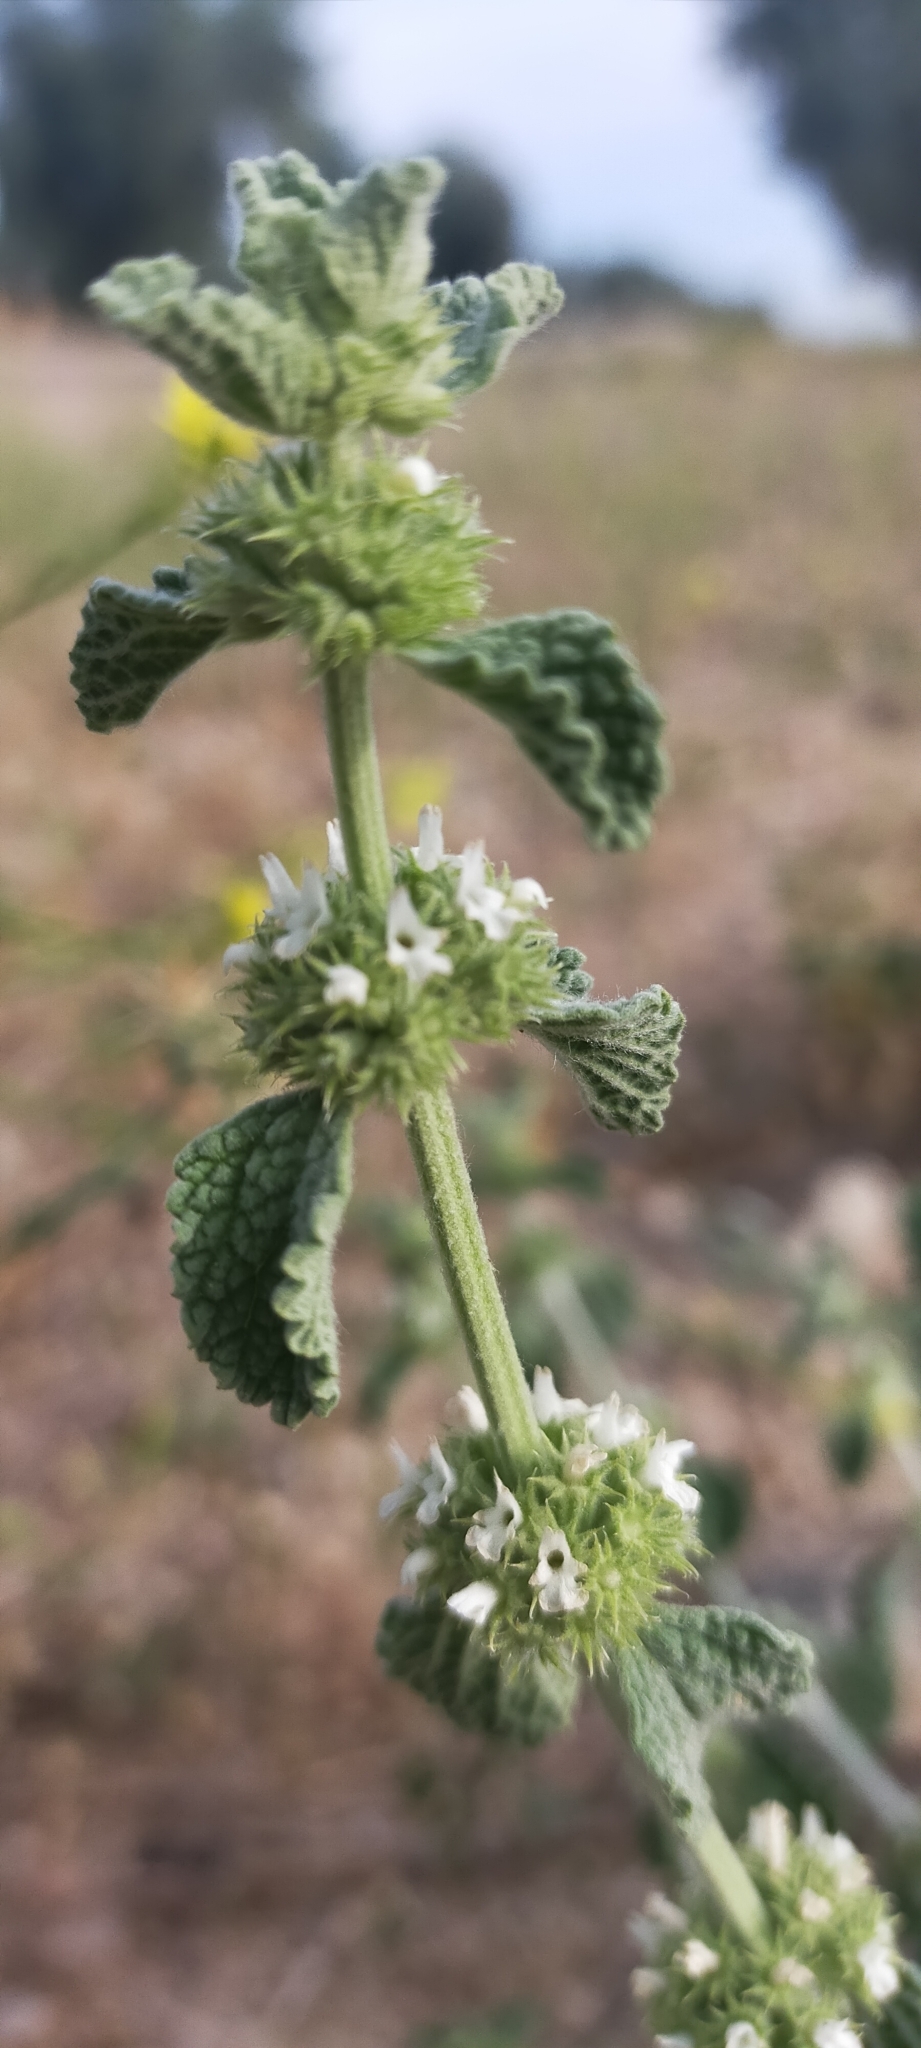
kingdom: Plantae
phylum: Tracheophyta
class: Magnoliopsida
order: Lamiales
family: Lamiaceae
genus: Marrubium
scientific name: Marrubium vulgare
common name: Horehound
